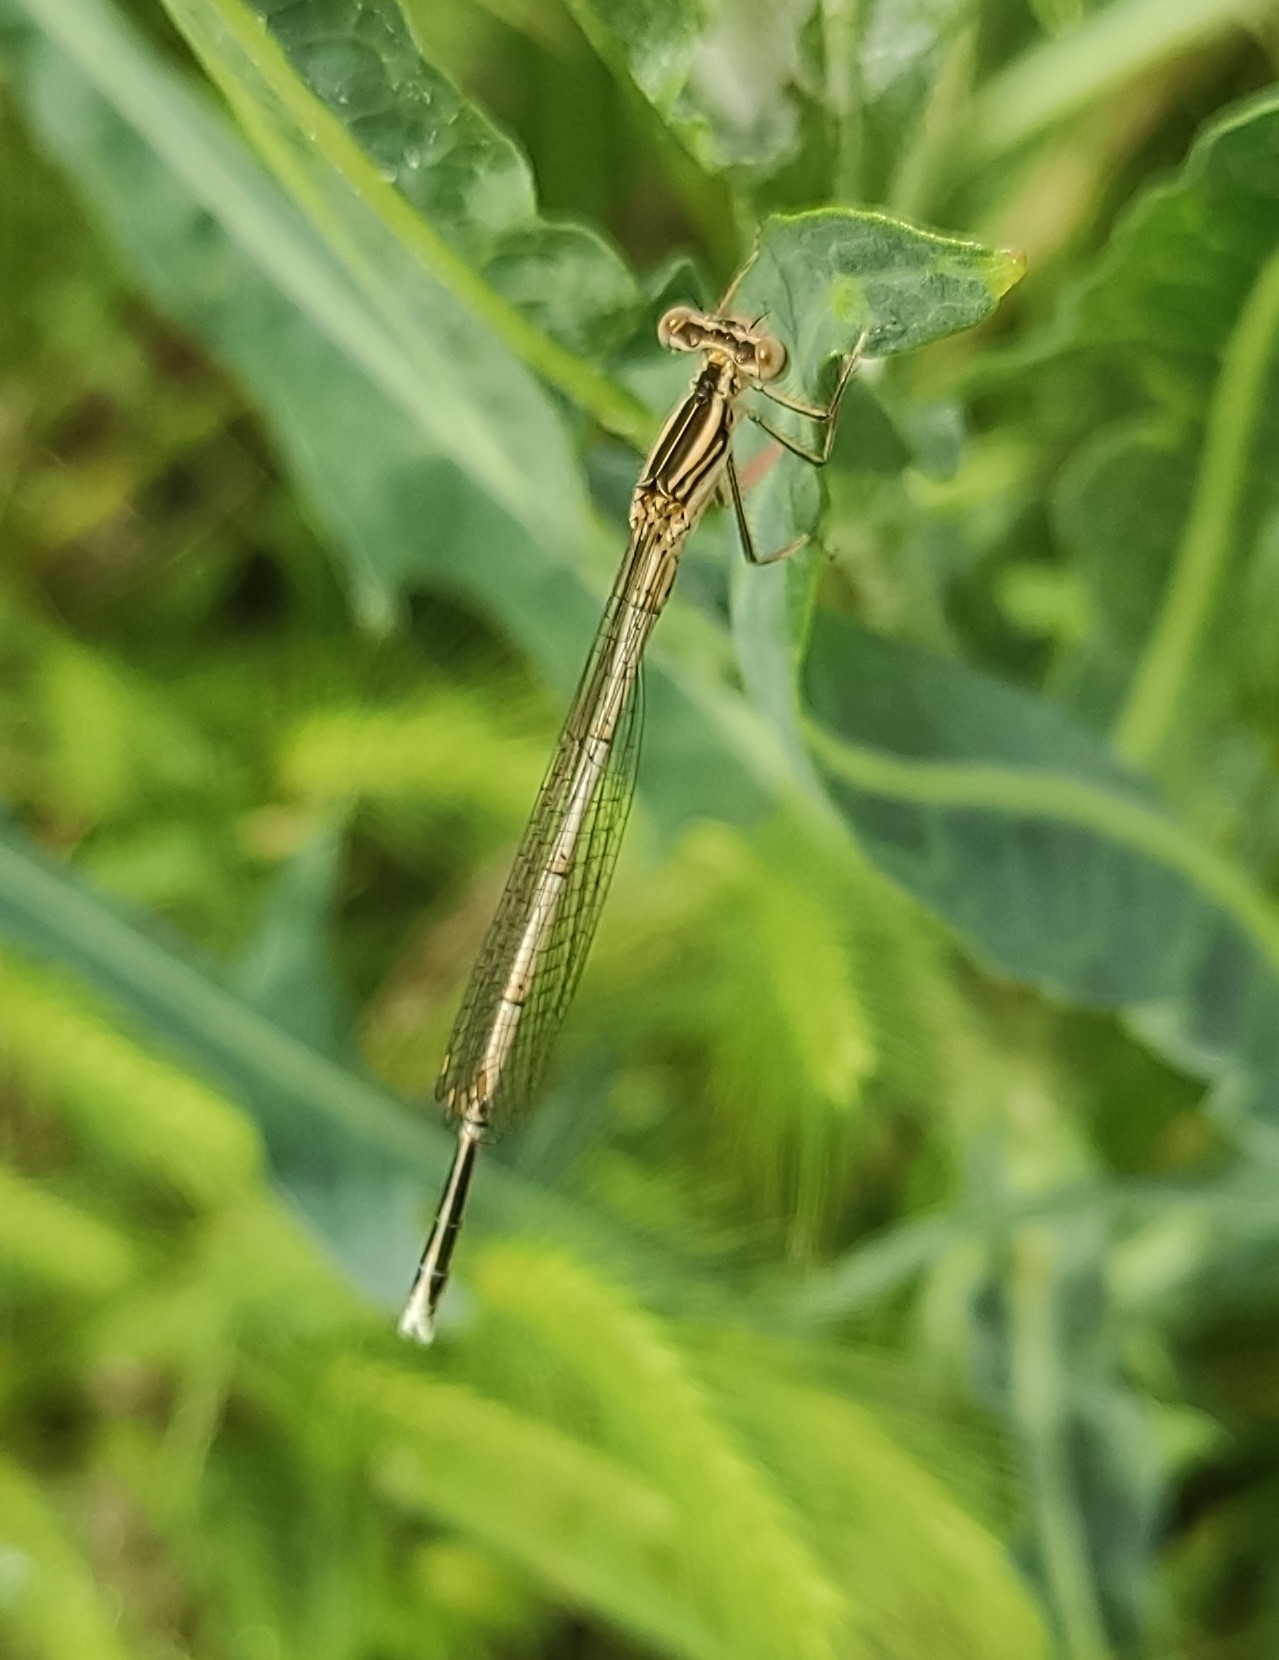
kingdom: Animalia
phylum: Arthropoda
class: Insecta
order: Odonata
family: Platycnemididae
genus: Platycnemis
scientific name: Platycnemis pennipes
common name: White-legged damselfly
